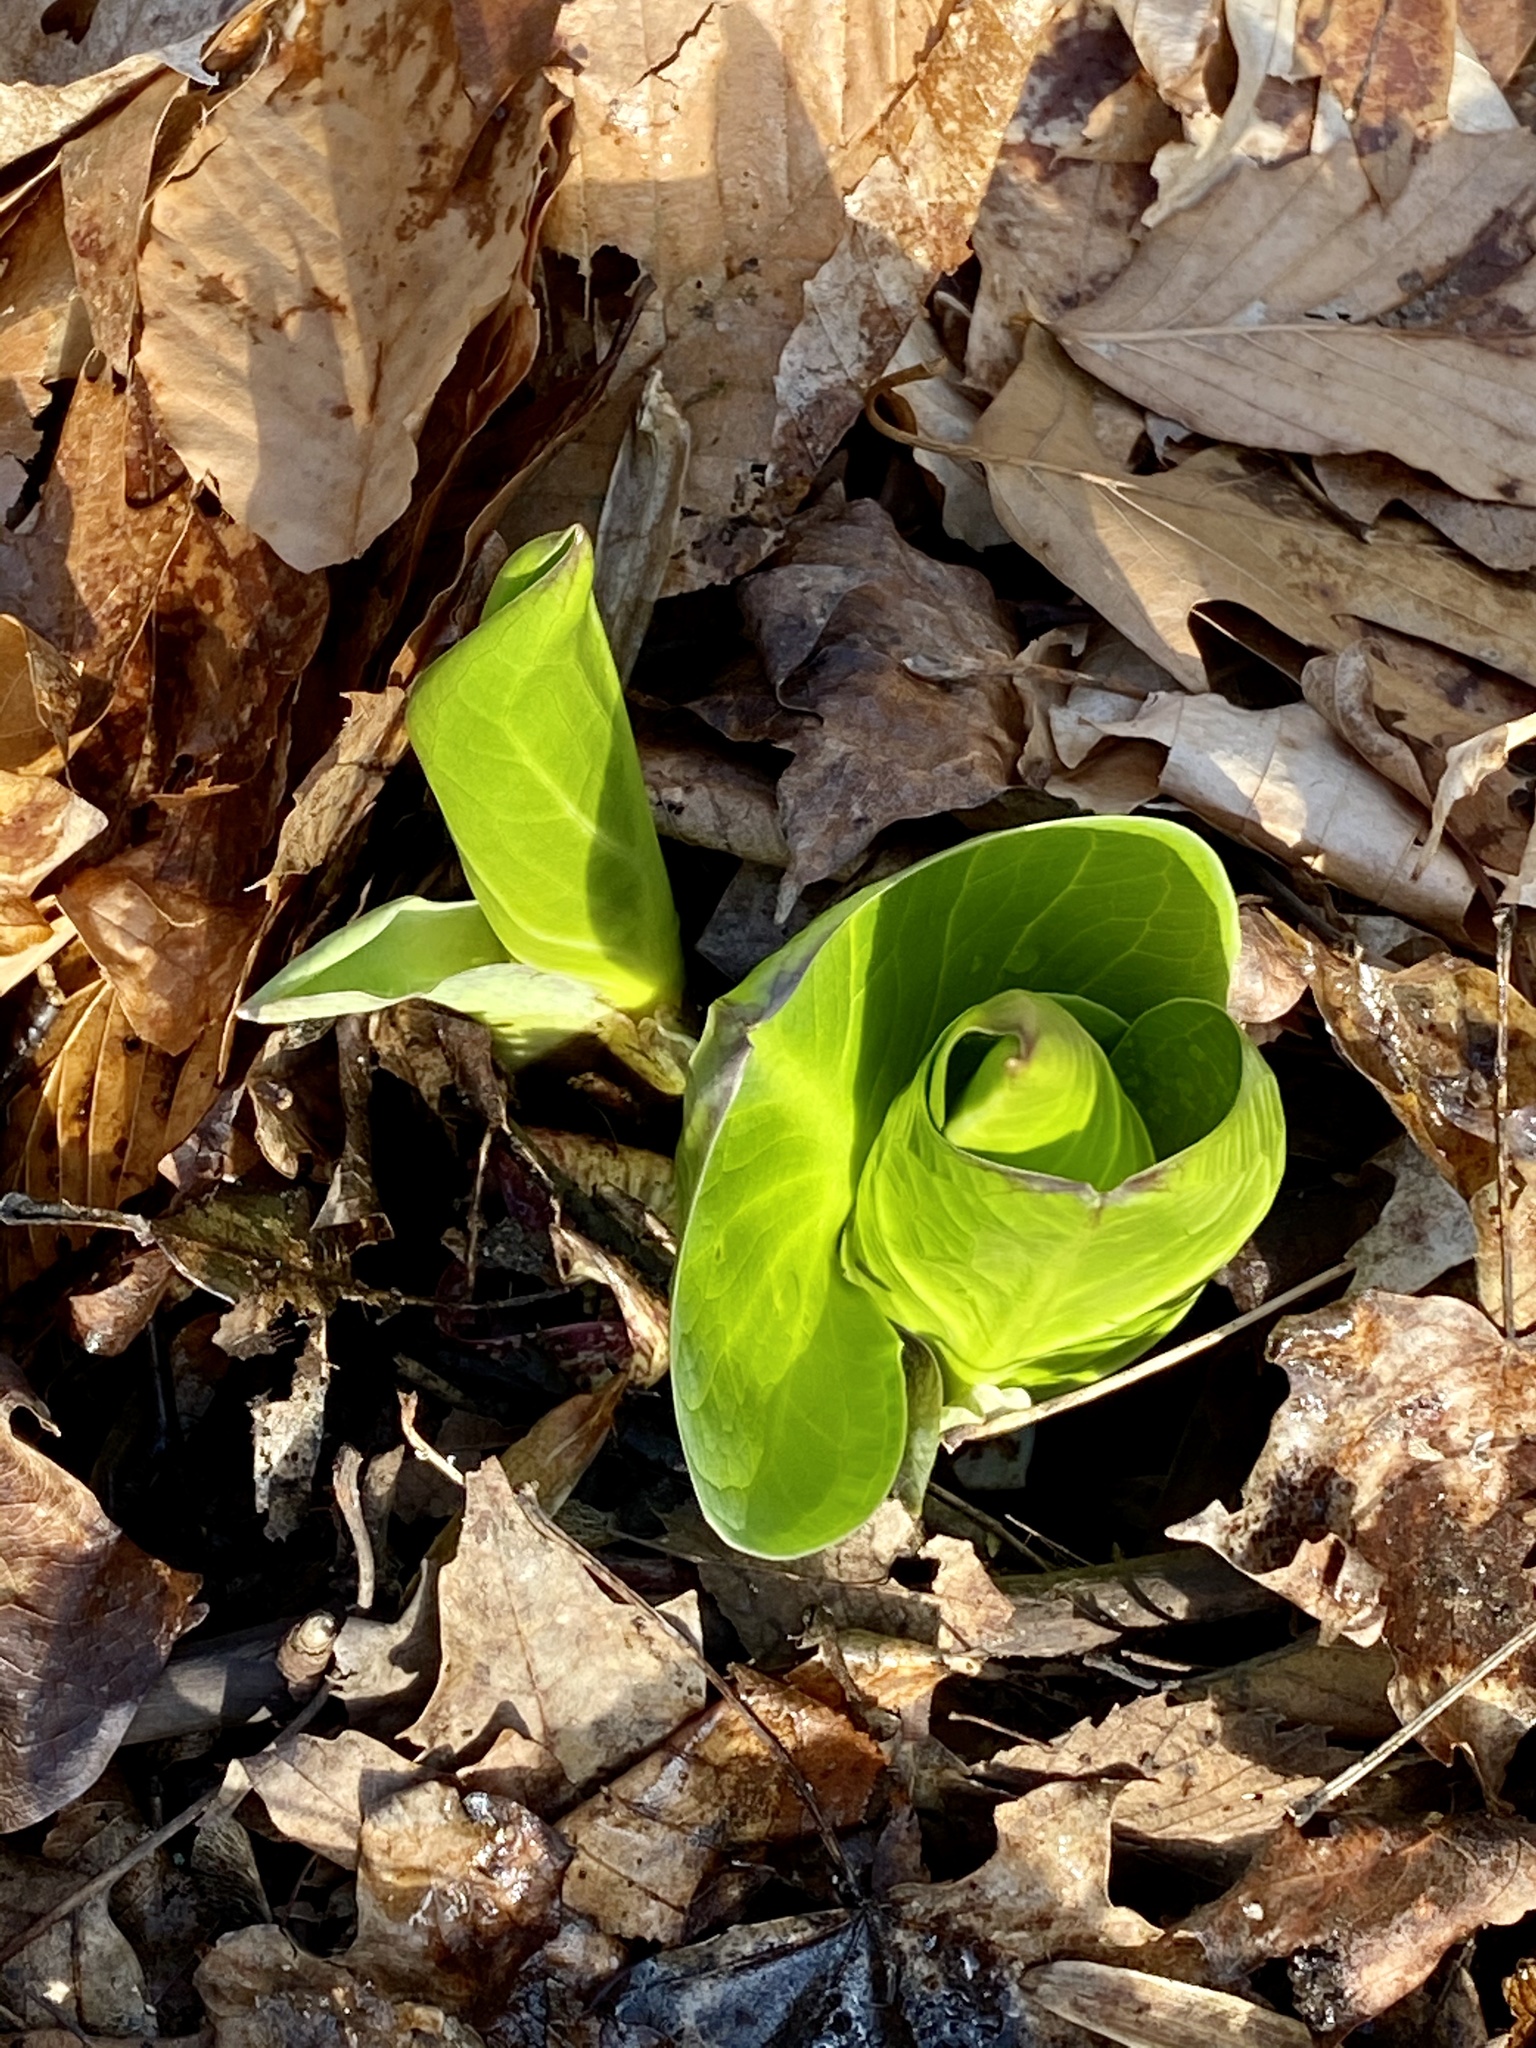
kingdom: Plantae
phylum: Tracheophyta
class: Liliopsida
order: Alismatales
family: Araceae
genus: Symplocarpus
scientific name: Symplocarpus foetidus
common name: Eastern skunk cabbage
